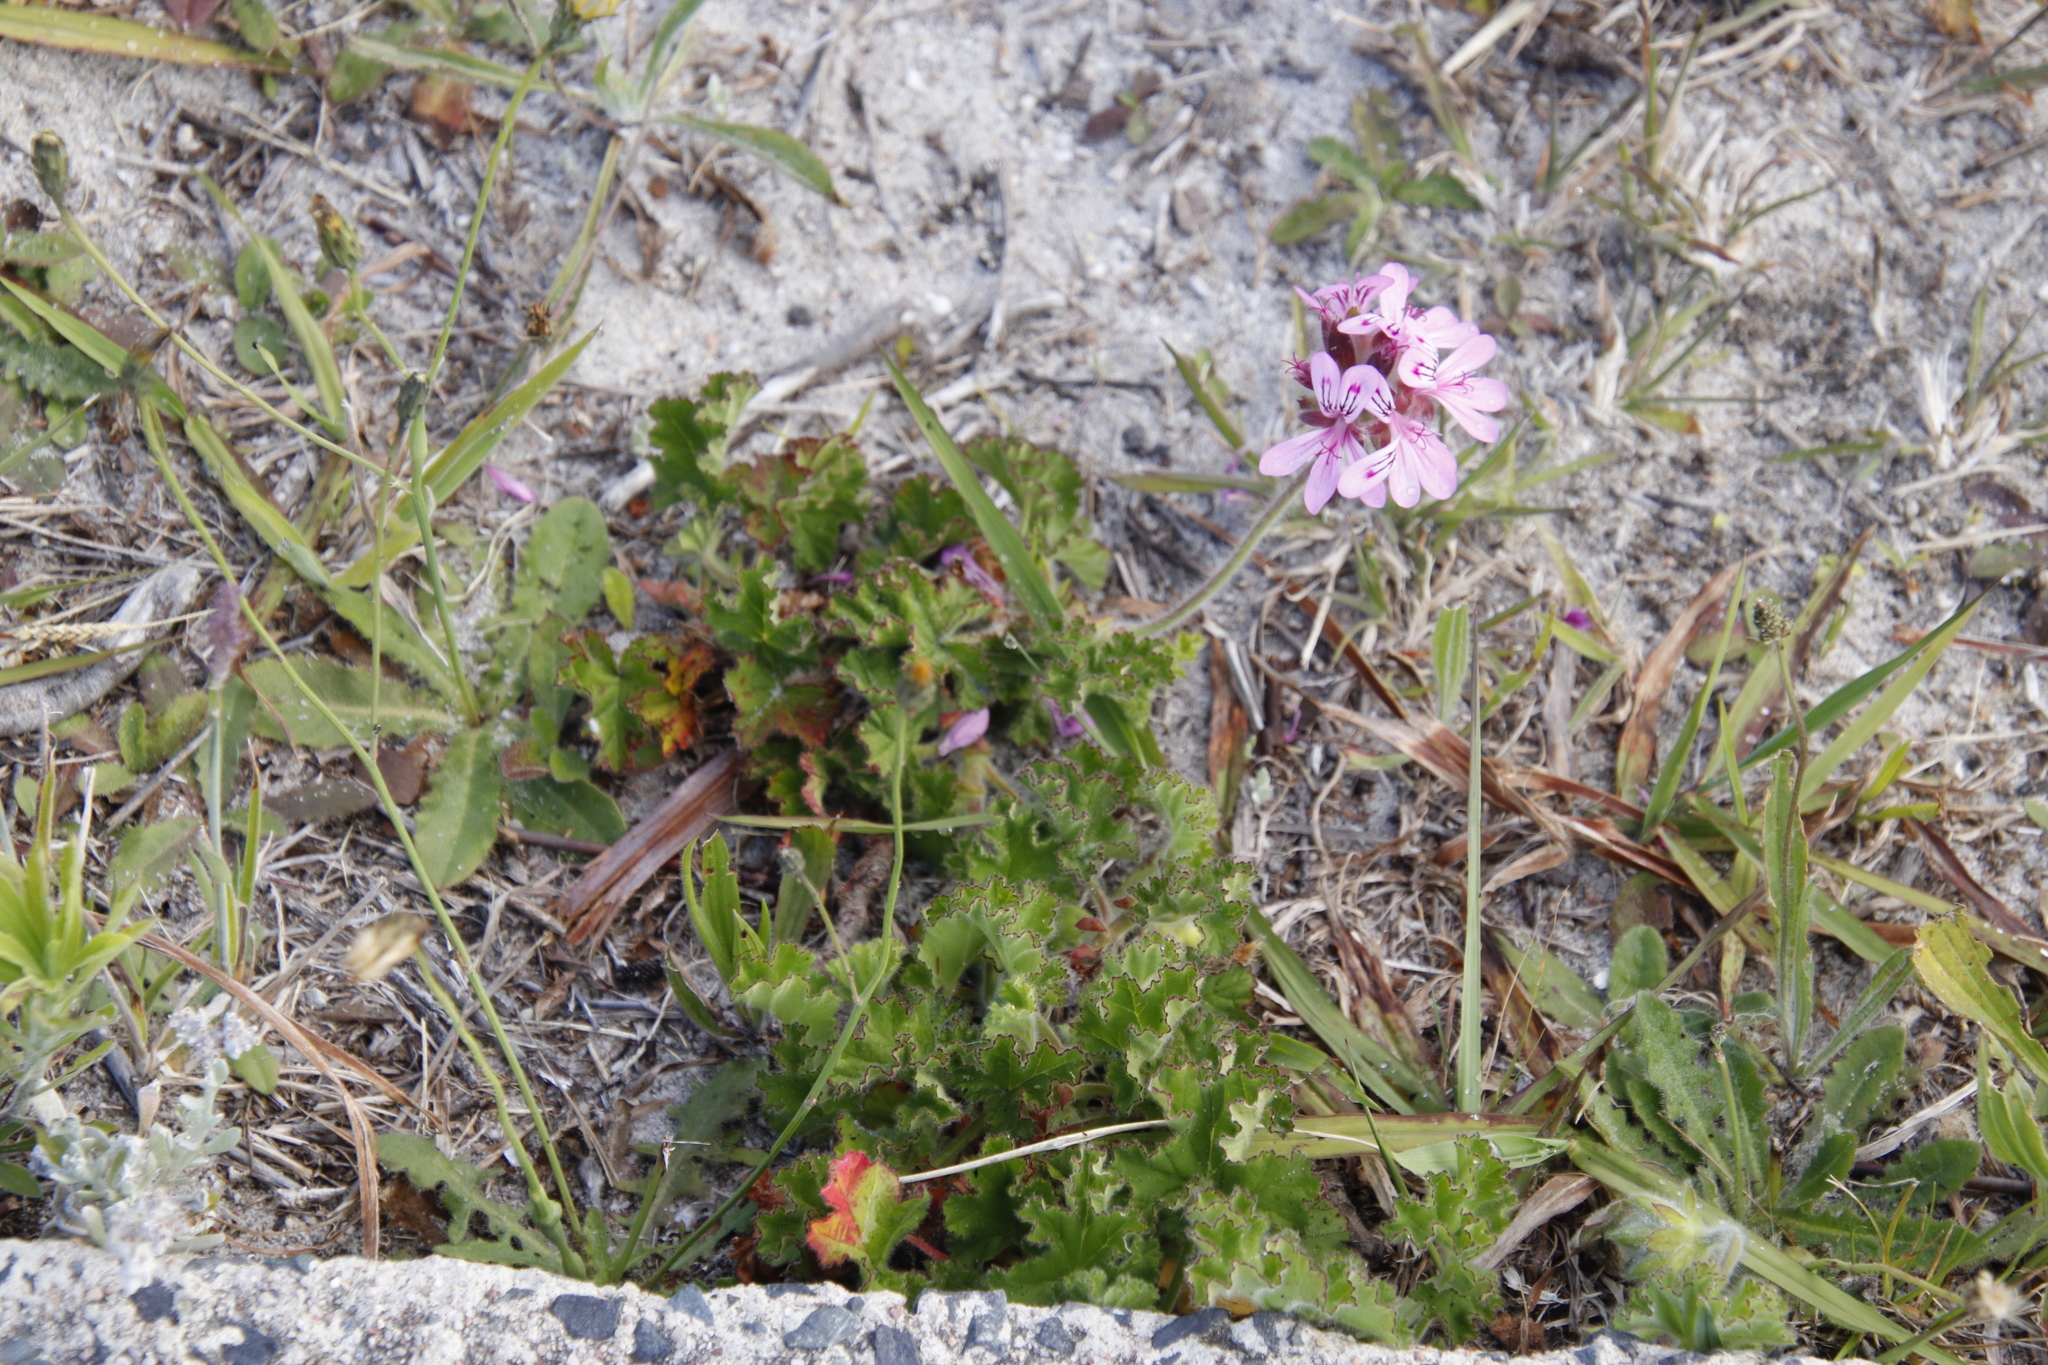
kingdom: Plantae
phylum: Tracheophyta
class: Magnoliopsida
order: Geraniales
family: Geraniaceae
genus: Pelargonium
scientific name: Pelargonium capitatum
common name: Rose scented geranium
